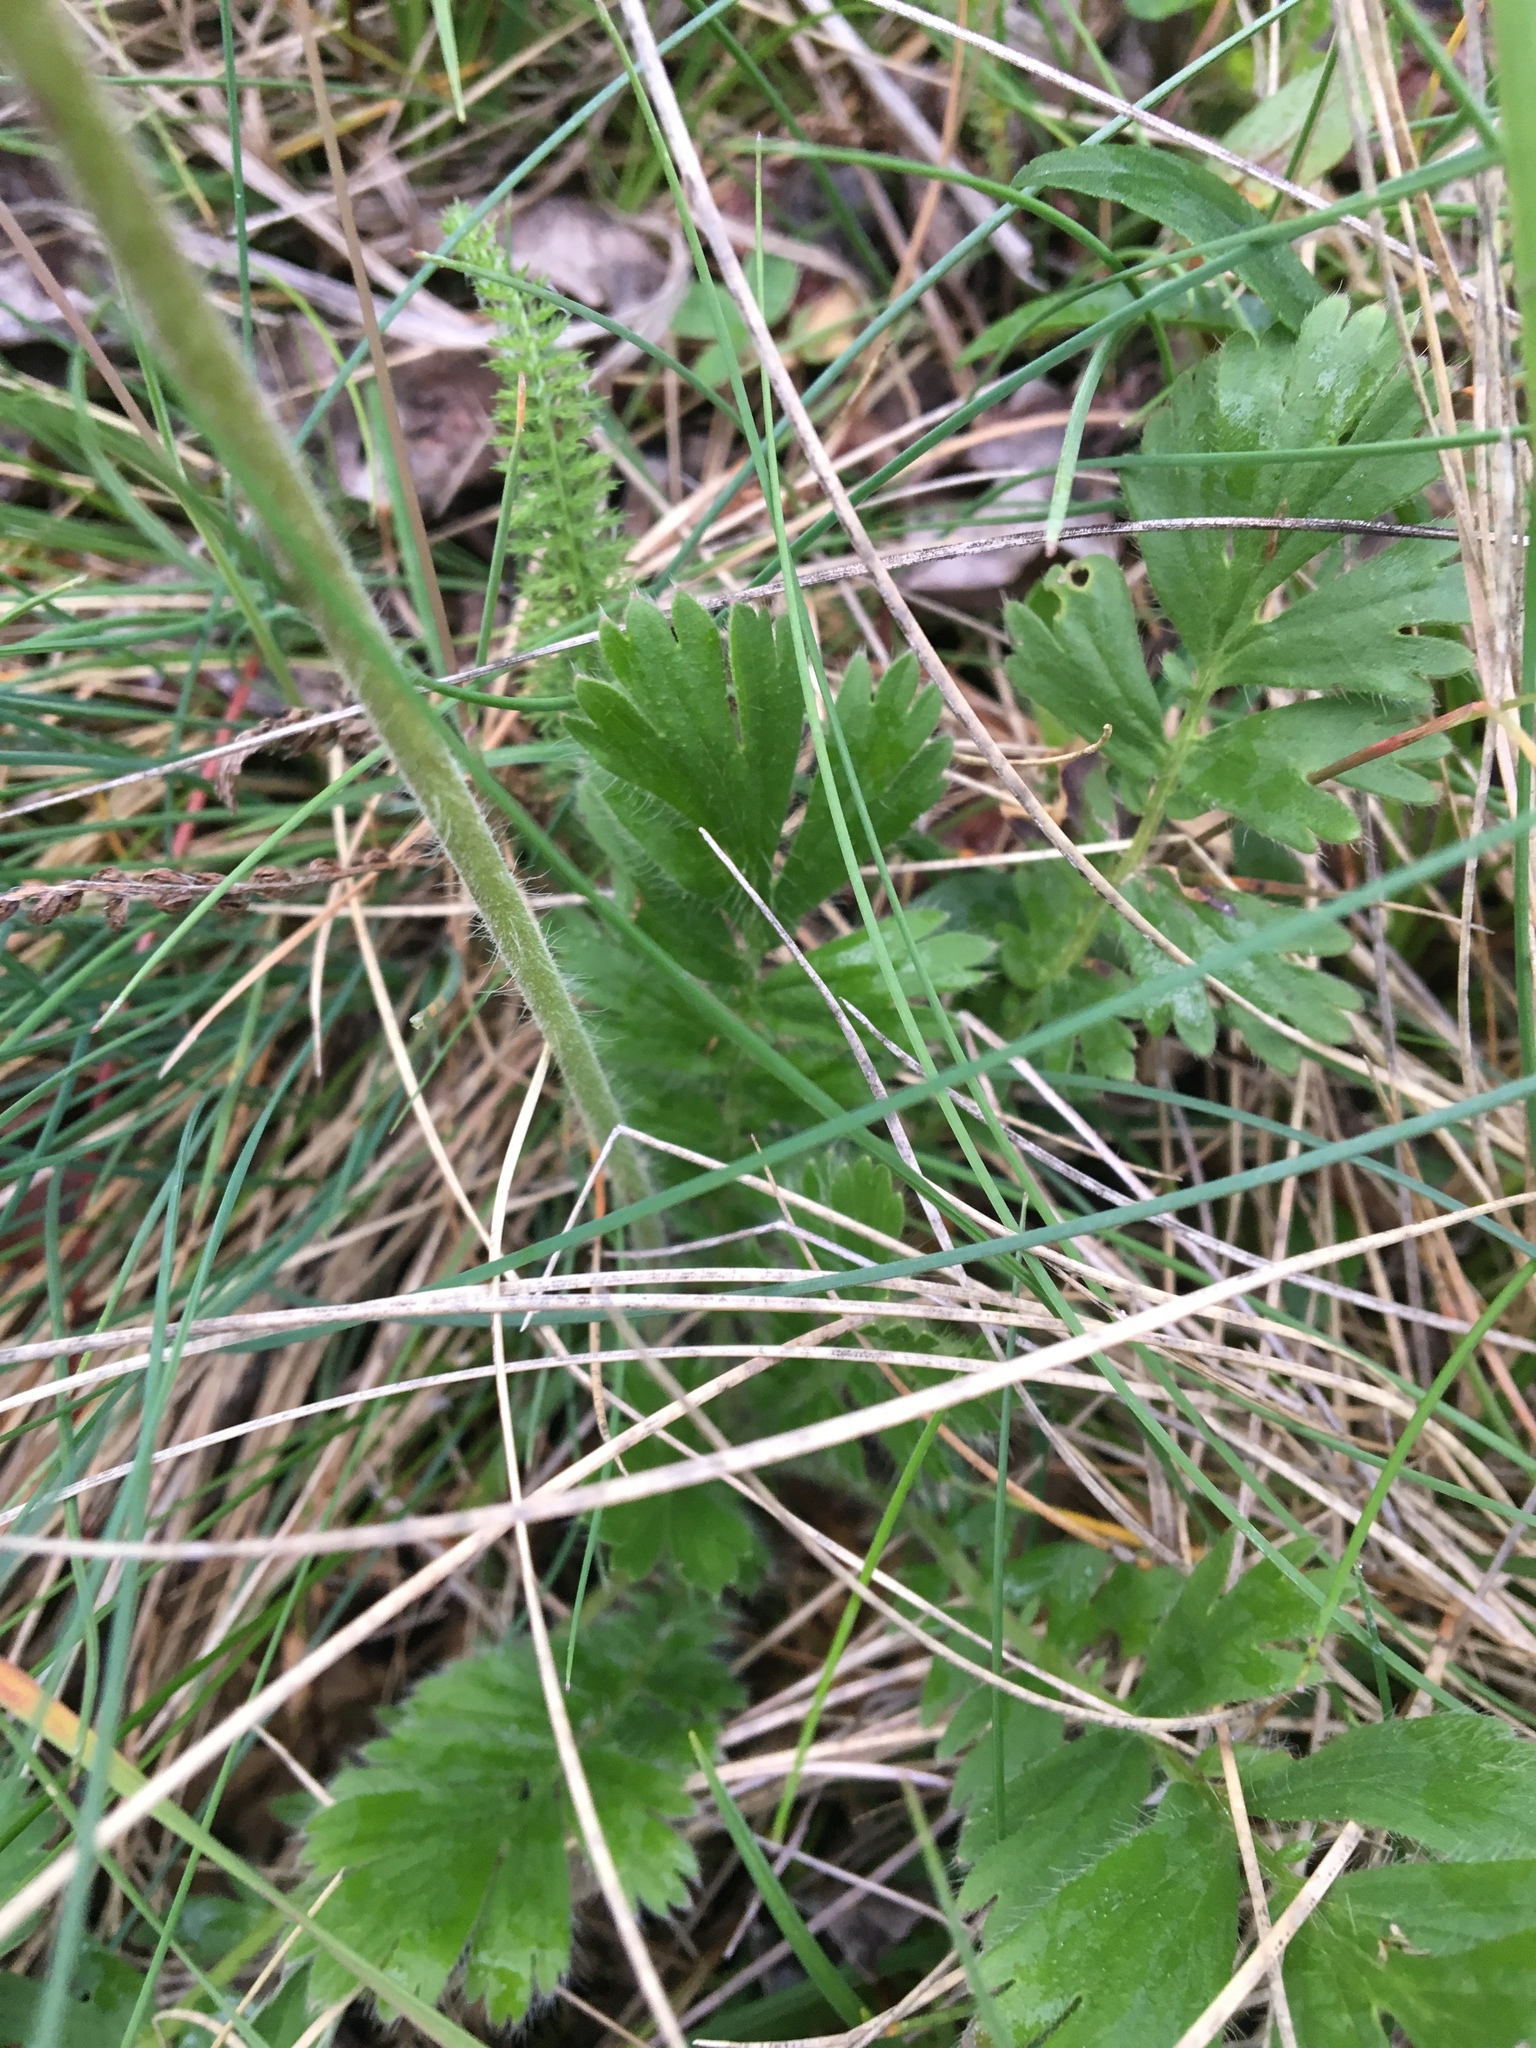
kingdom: Plantae
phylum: Tracheophyta
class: Magnoliopsida
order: Rosales
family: Rosaceae
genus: Geum
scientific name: Geum triflorum
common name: Old man's whiskers
